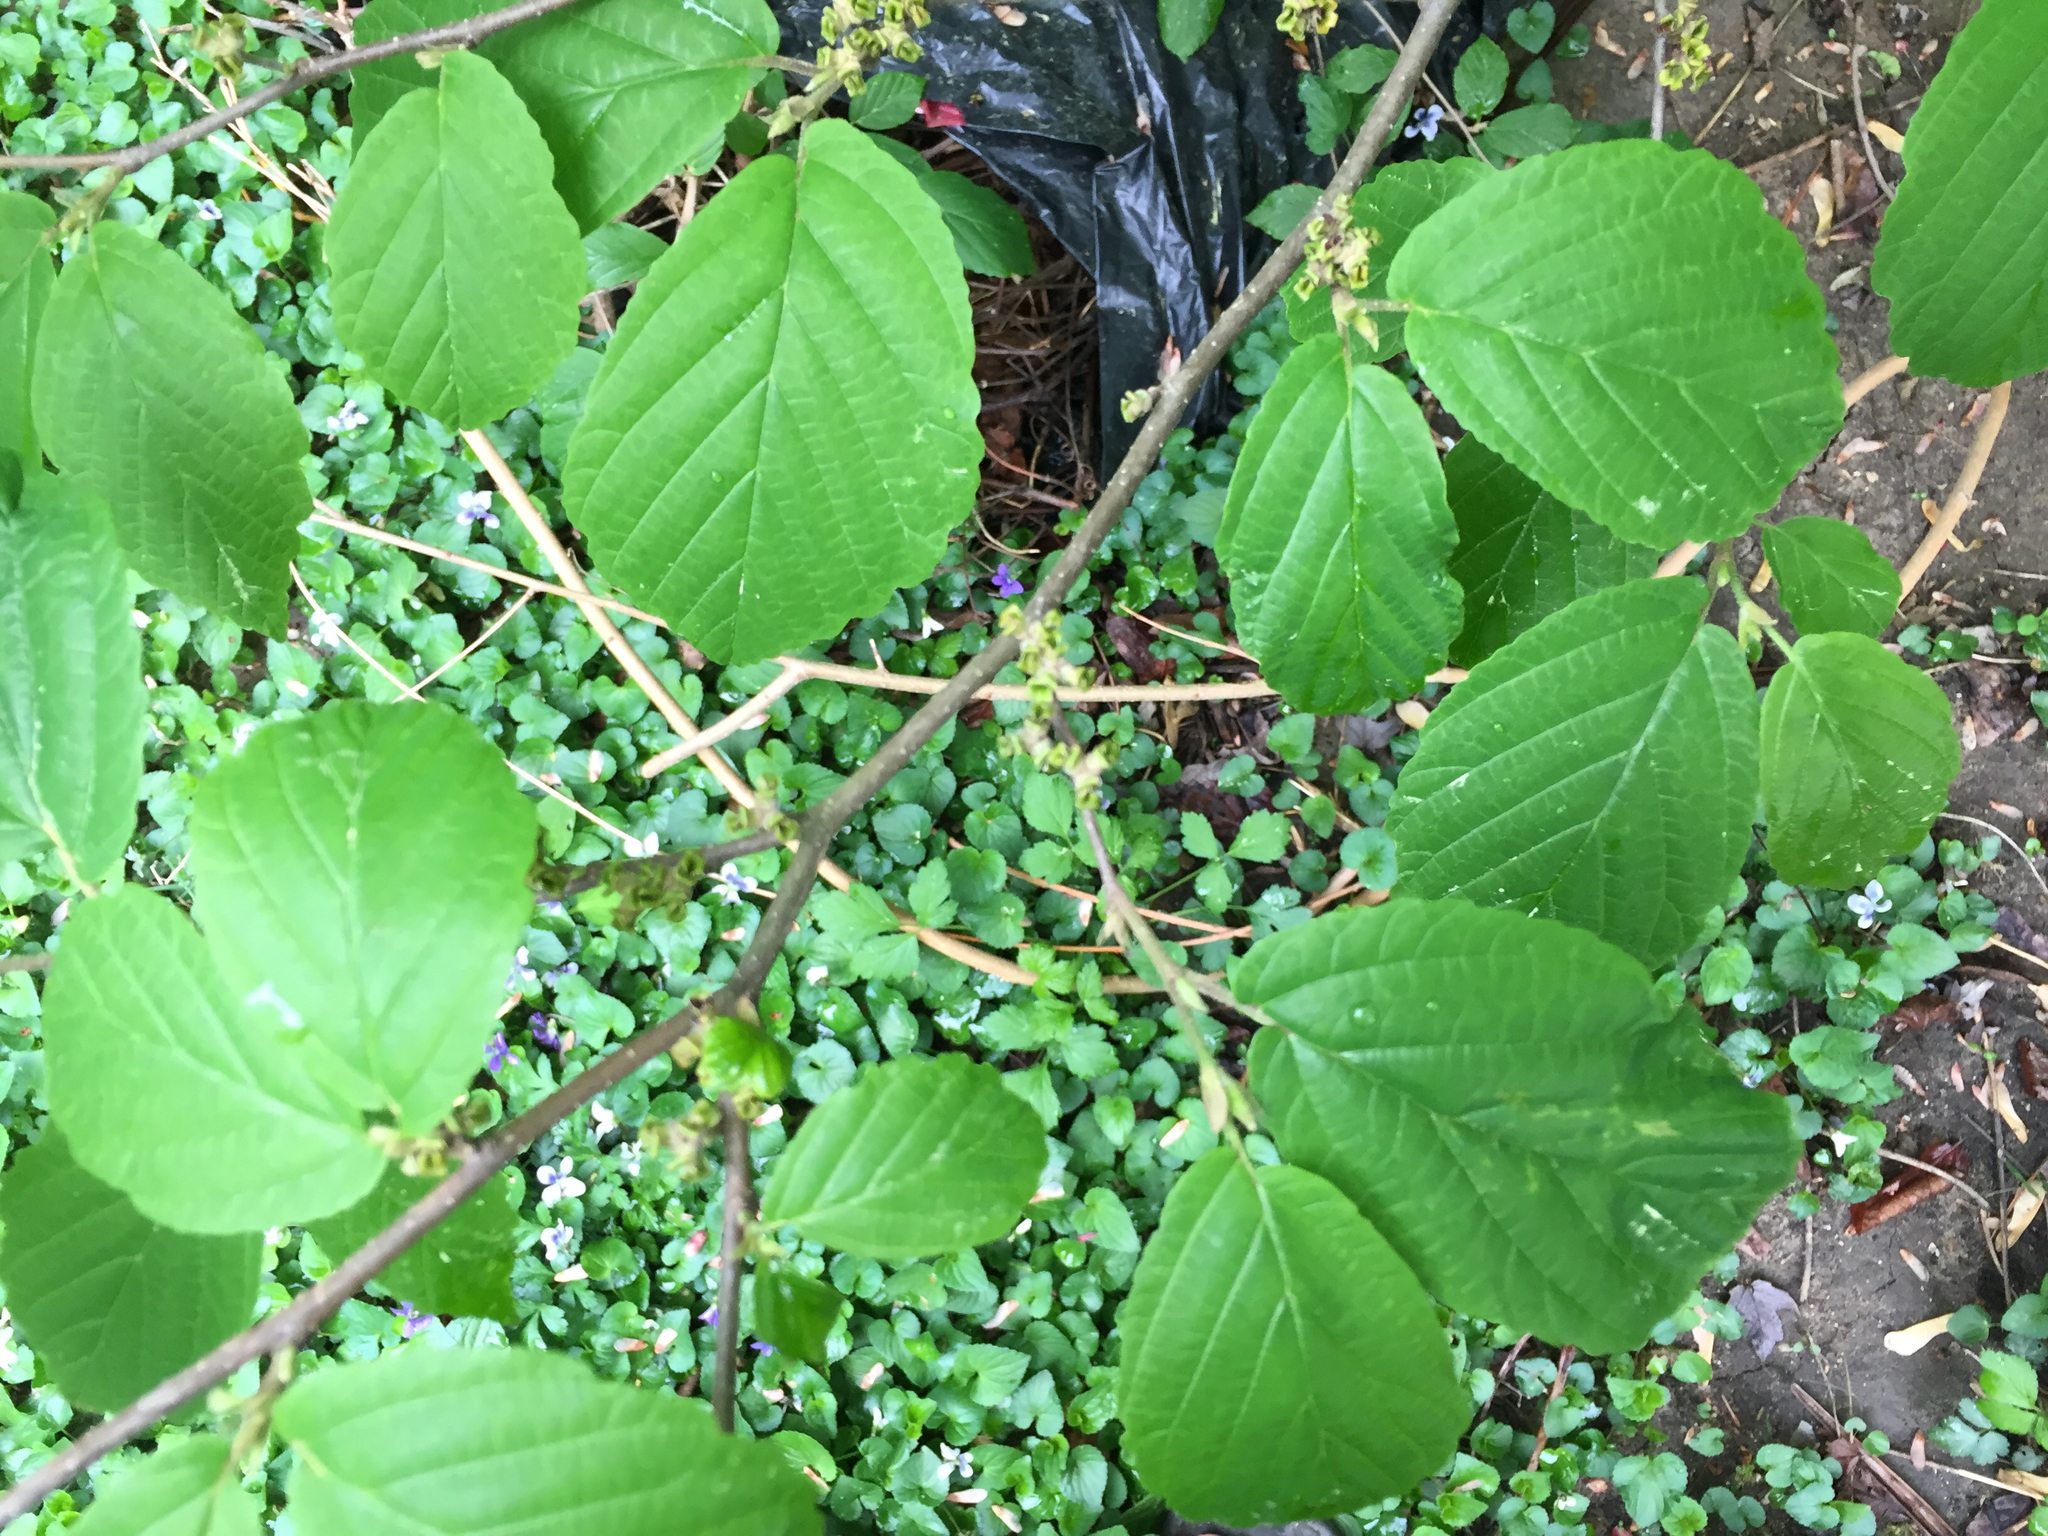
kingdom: Plantae
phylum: Tracheophyta
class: Magnoliopsida
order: Saxifragales
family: Hamamelidaceae
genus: Hamamelis
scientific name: Hamamelis virginiana
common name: Witch-hazel
